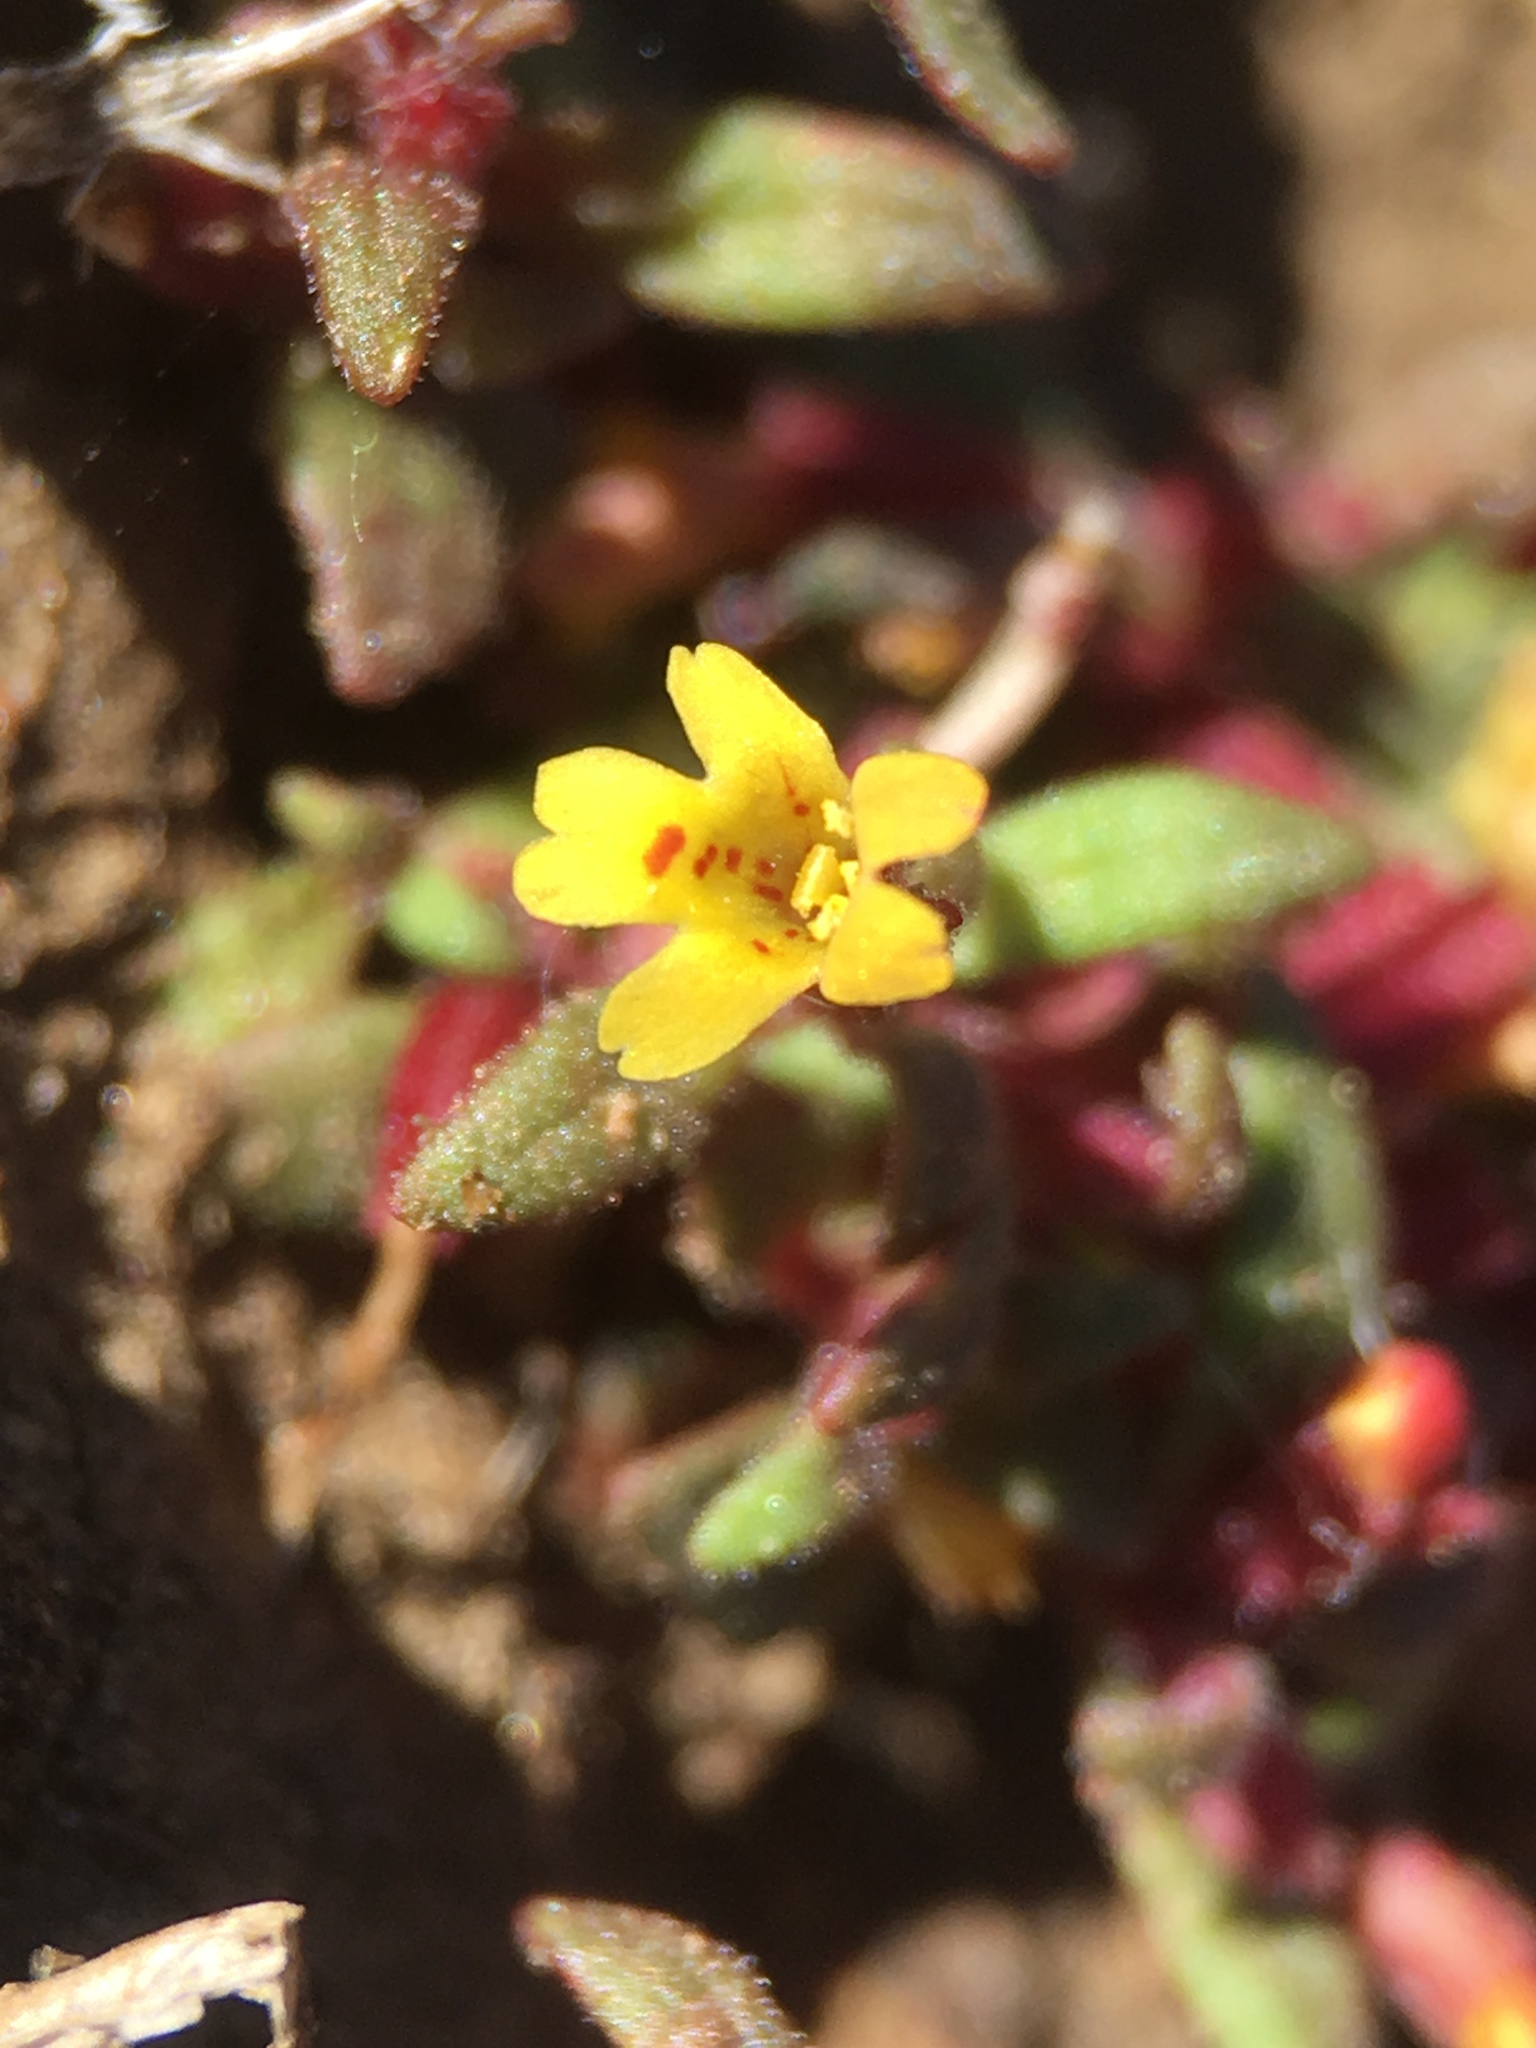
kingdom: Plantae
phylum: Tracheophyta
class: Magnoliopsida
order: Lamiales
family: Phrymaceae
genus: Erythranthe
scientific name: Erythranthe suksdorfii
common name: Suksdorf's monkeyflower
